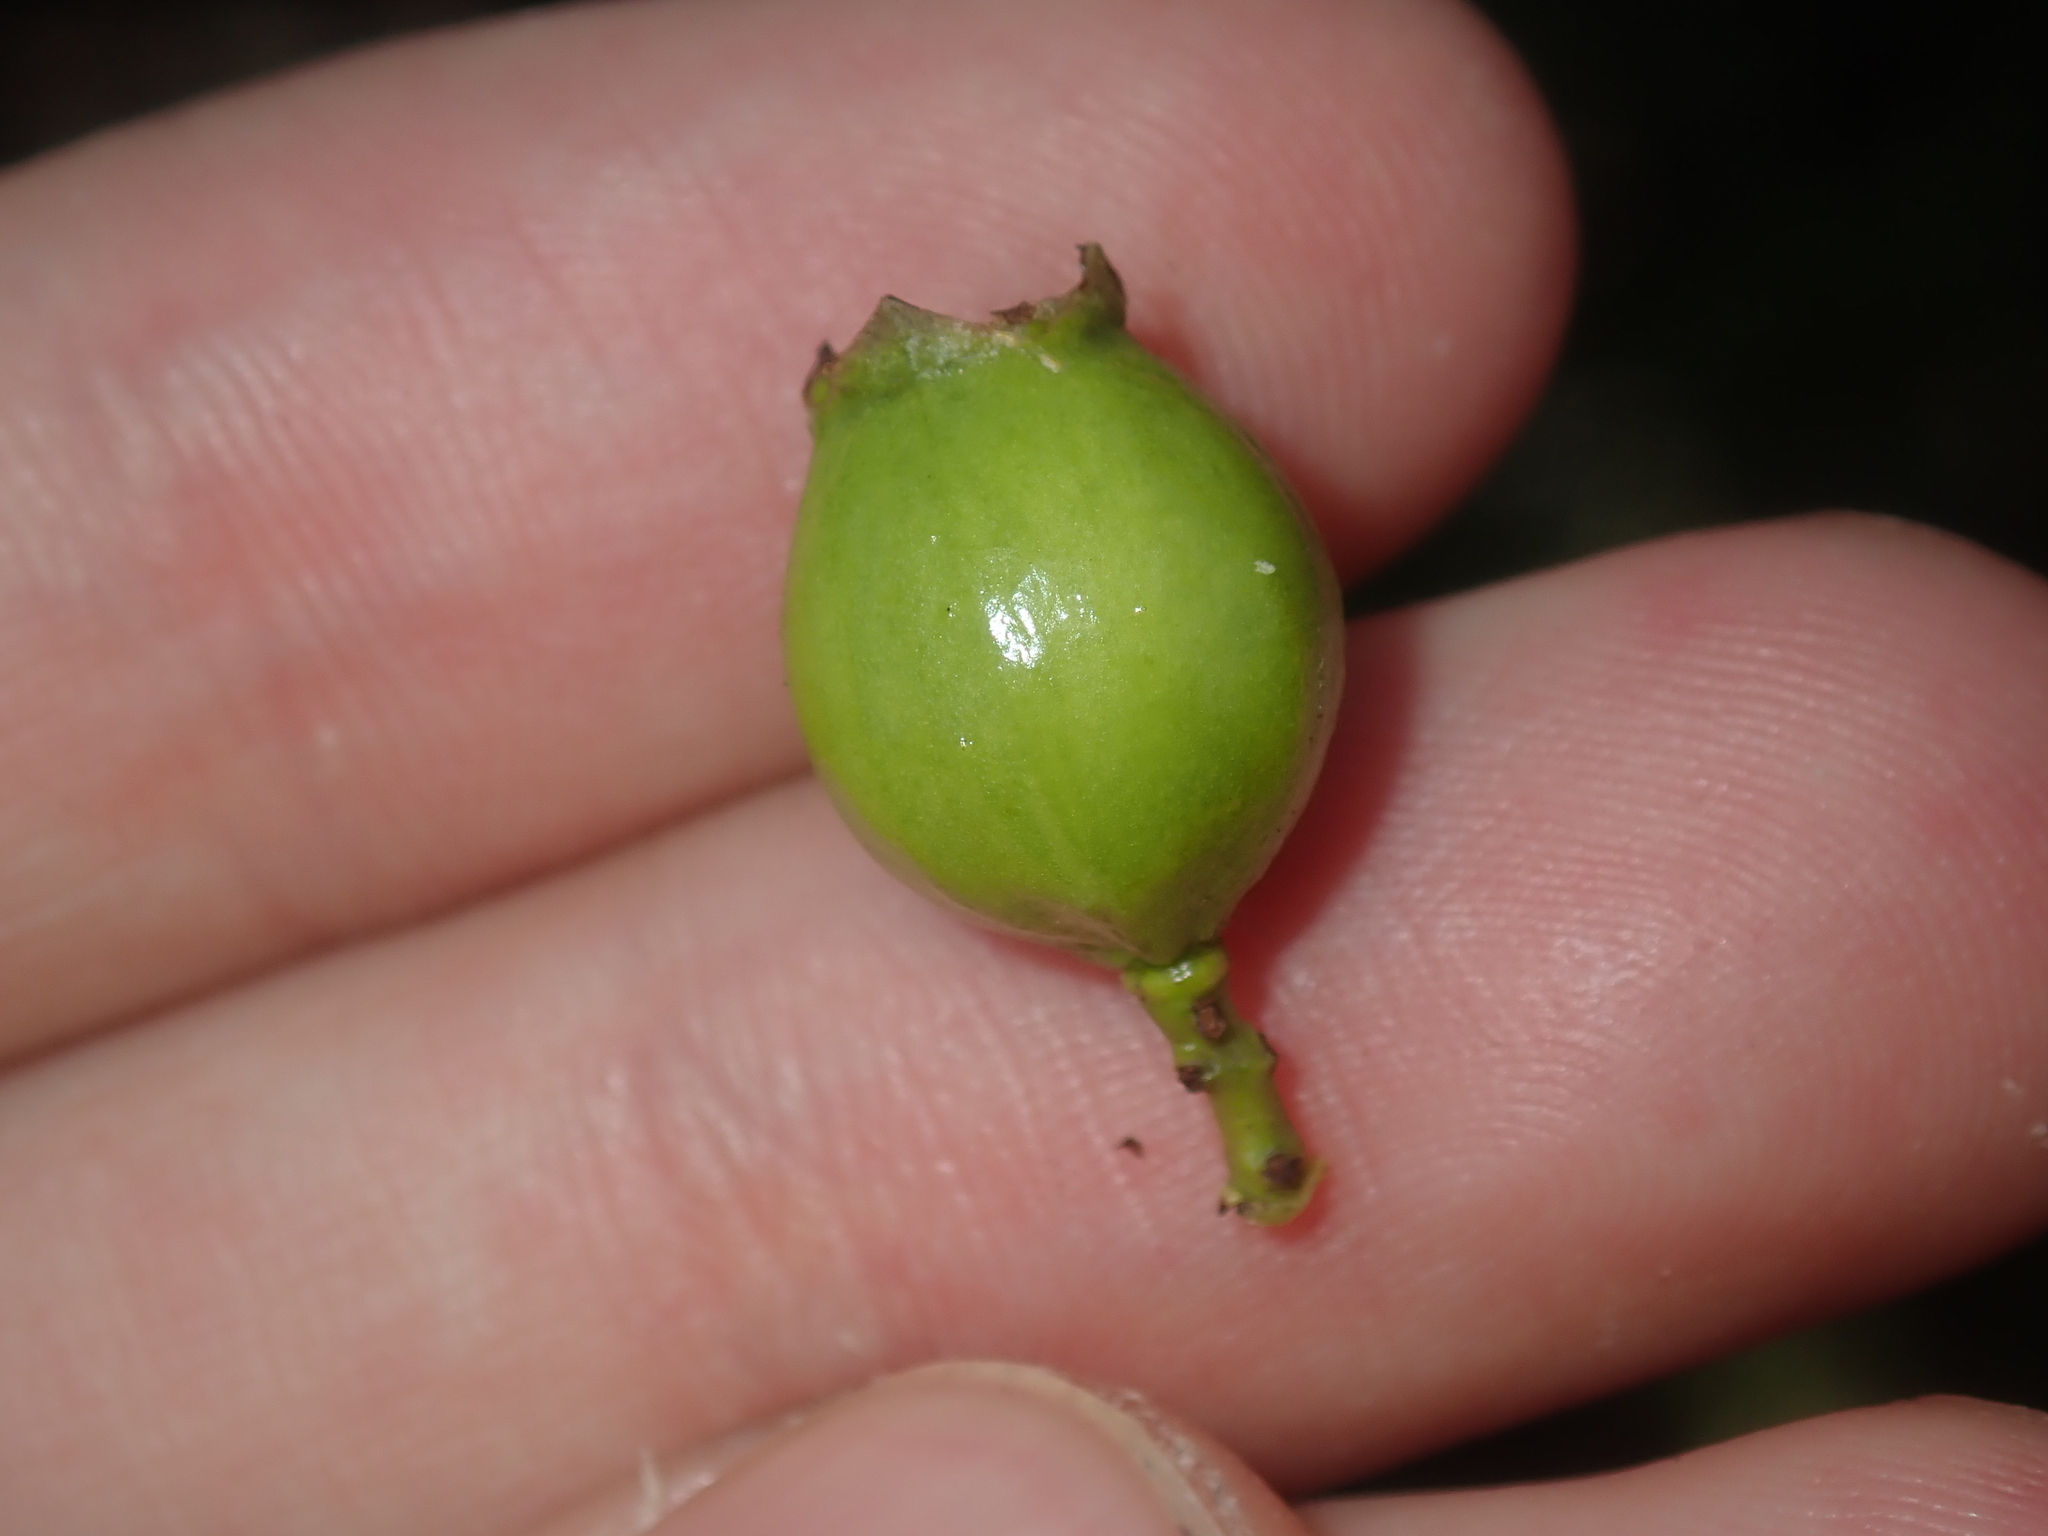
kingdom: Plantae
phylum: Tracheophyta
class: Magnoliopsida
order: Santalales
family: Santalaceae
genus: Santalum
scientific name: Santalum spicatum
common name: West australian sandalwood
